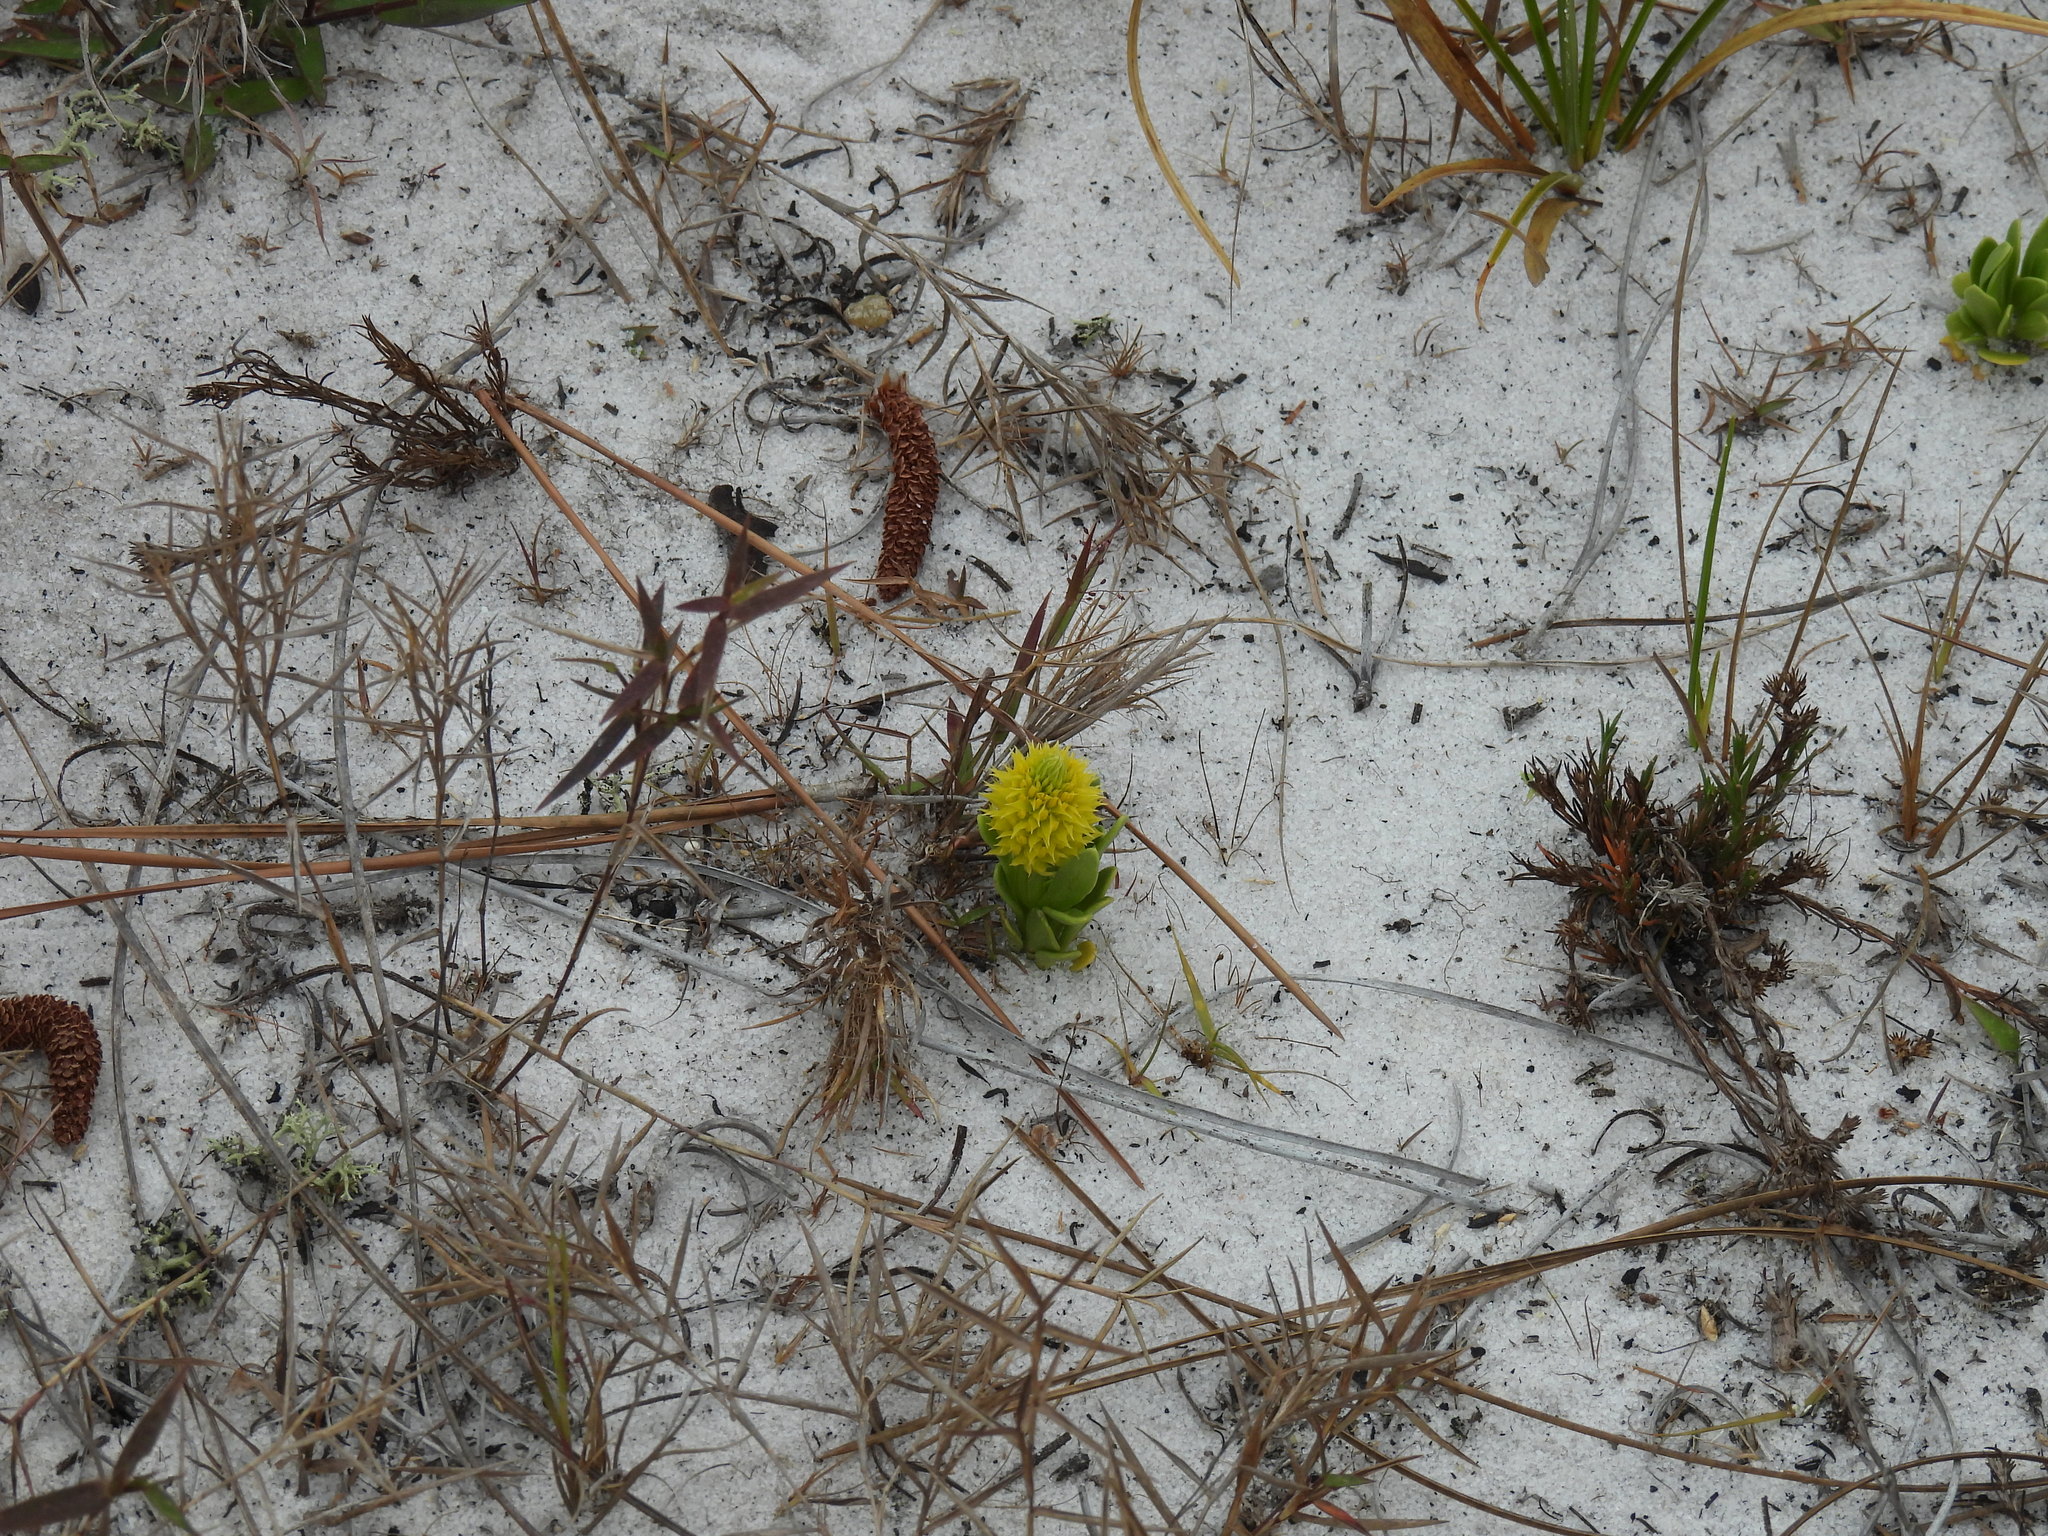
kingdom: Plantae
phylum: Tracheophyta
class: Magnoliopsida
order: Fabales
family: Polygalaceae
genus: Polygala
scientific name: Polygala nana
